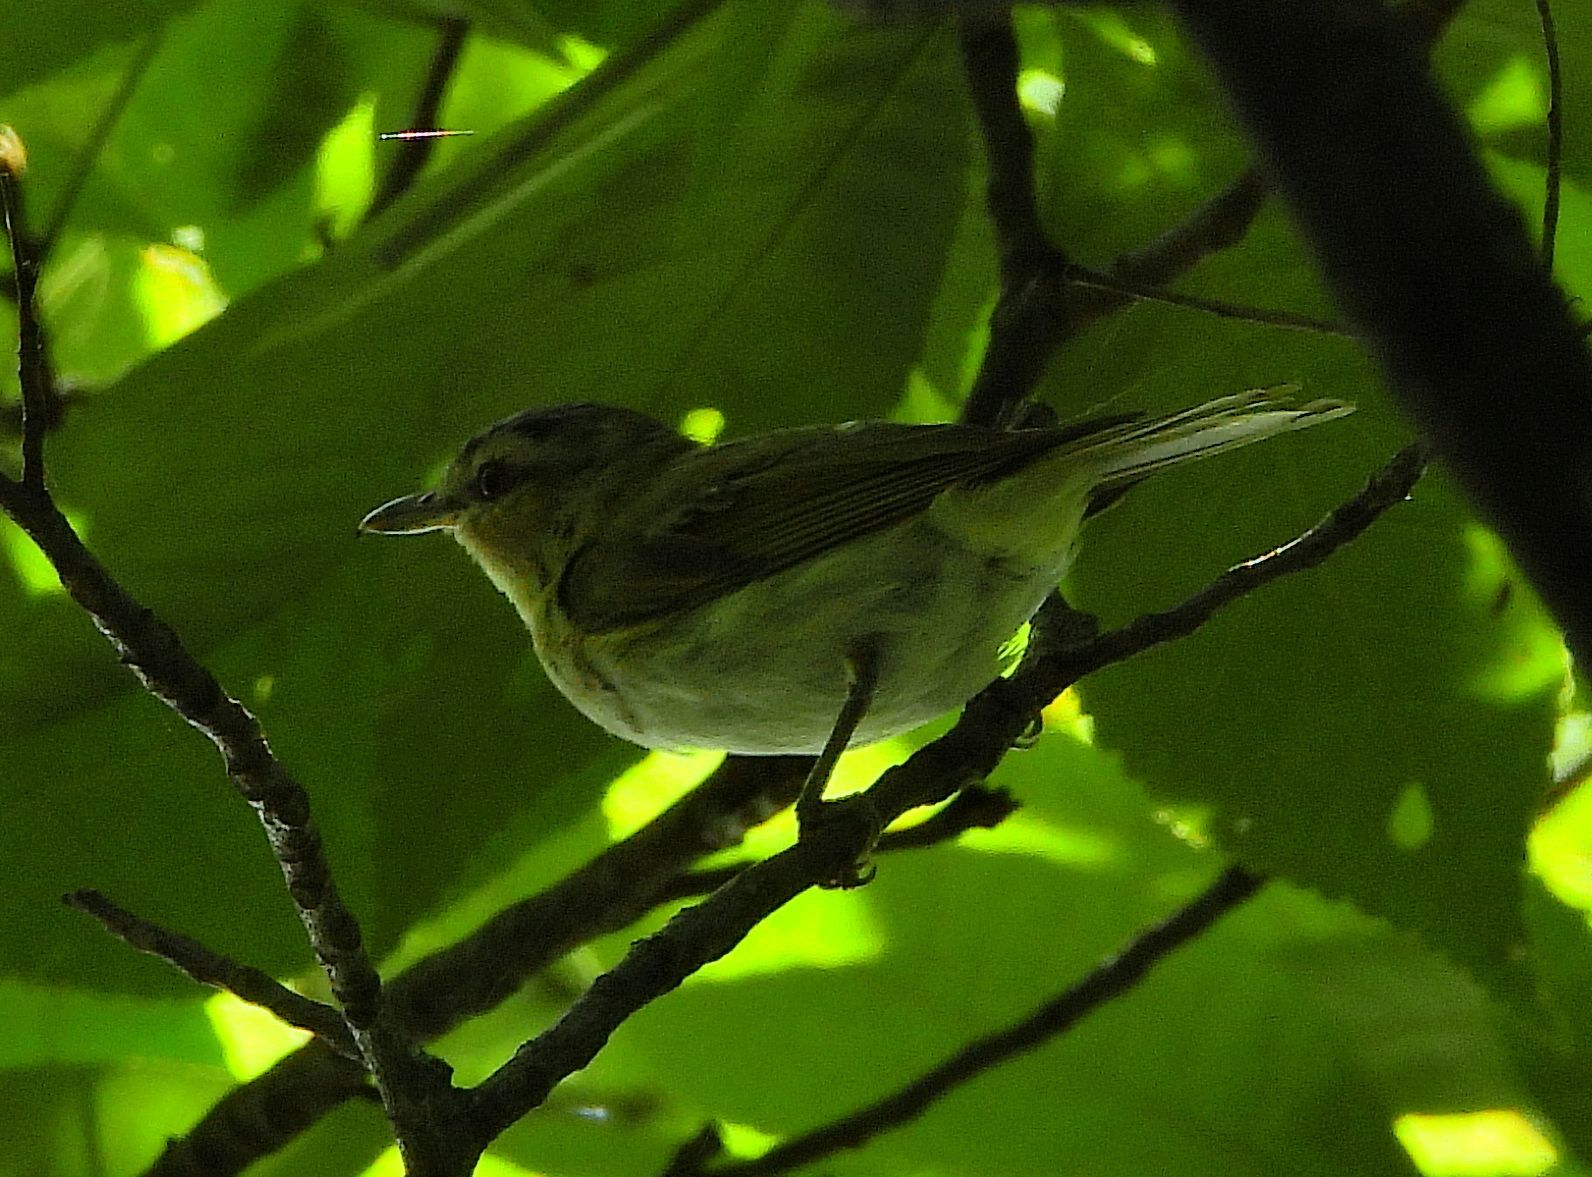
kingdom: Animalia
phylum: Chordata
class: Aves
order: Passeriformes
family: Vireonidae
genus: Vireo
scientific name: Vireo olivaceus
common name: Red-eyed vireo
